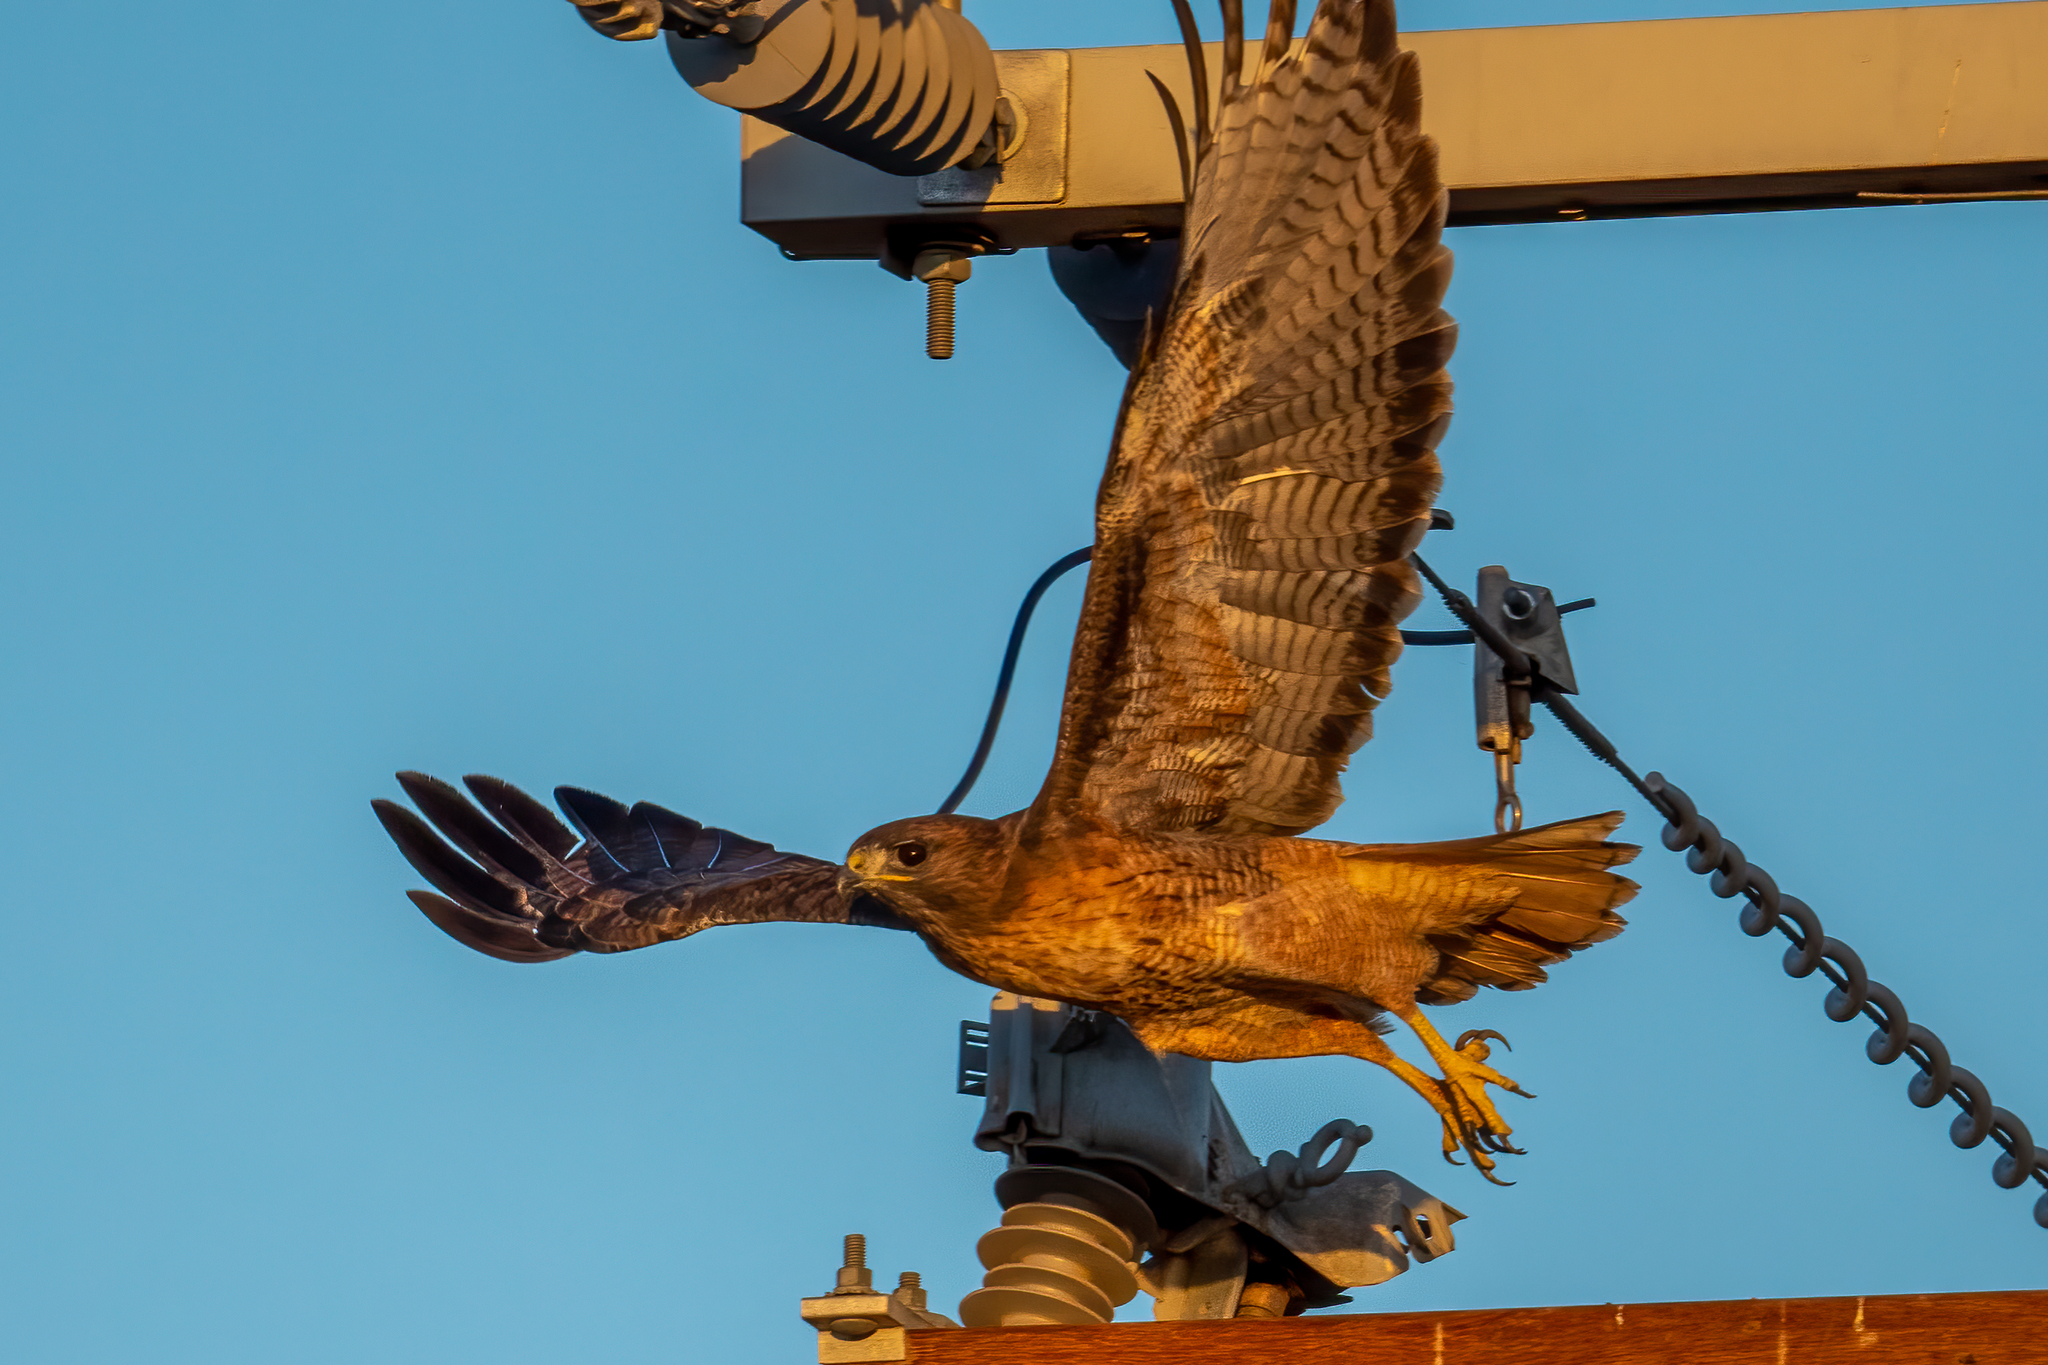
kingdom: Animalia
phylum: Chordata
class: Aves
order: Accipitriformes
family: Accipitridae
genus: Buteo
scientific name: Buteo jamaicensis
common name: Red-tailed hawk
